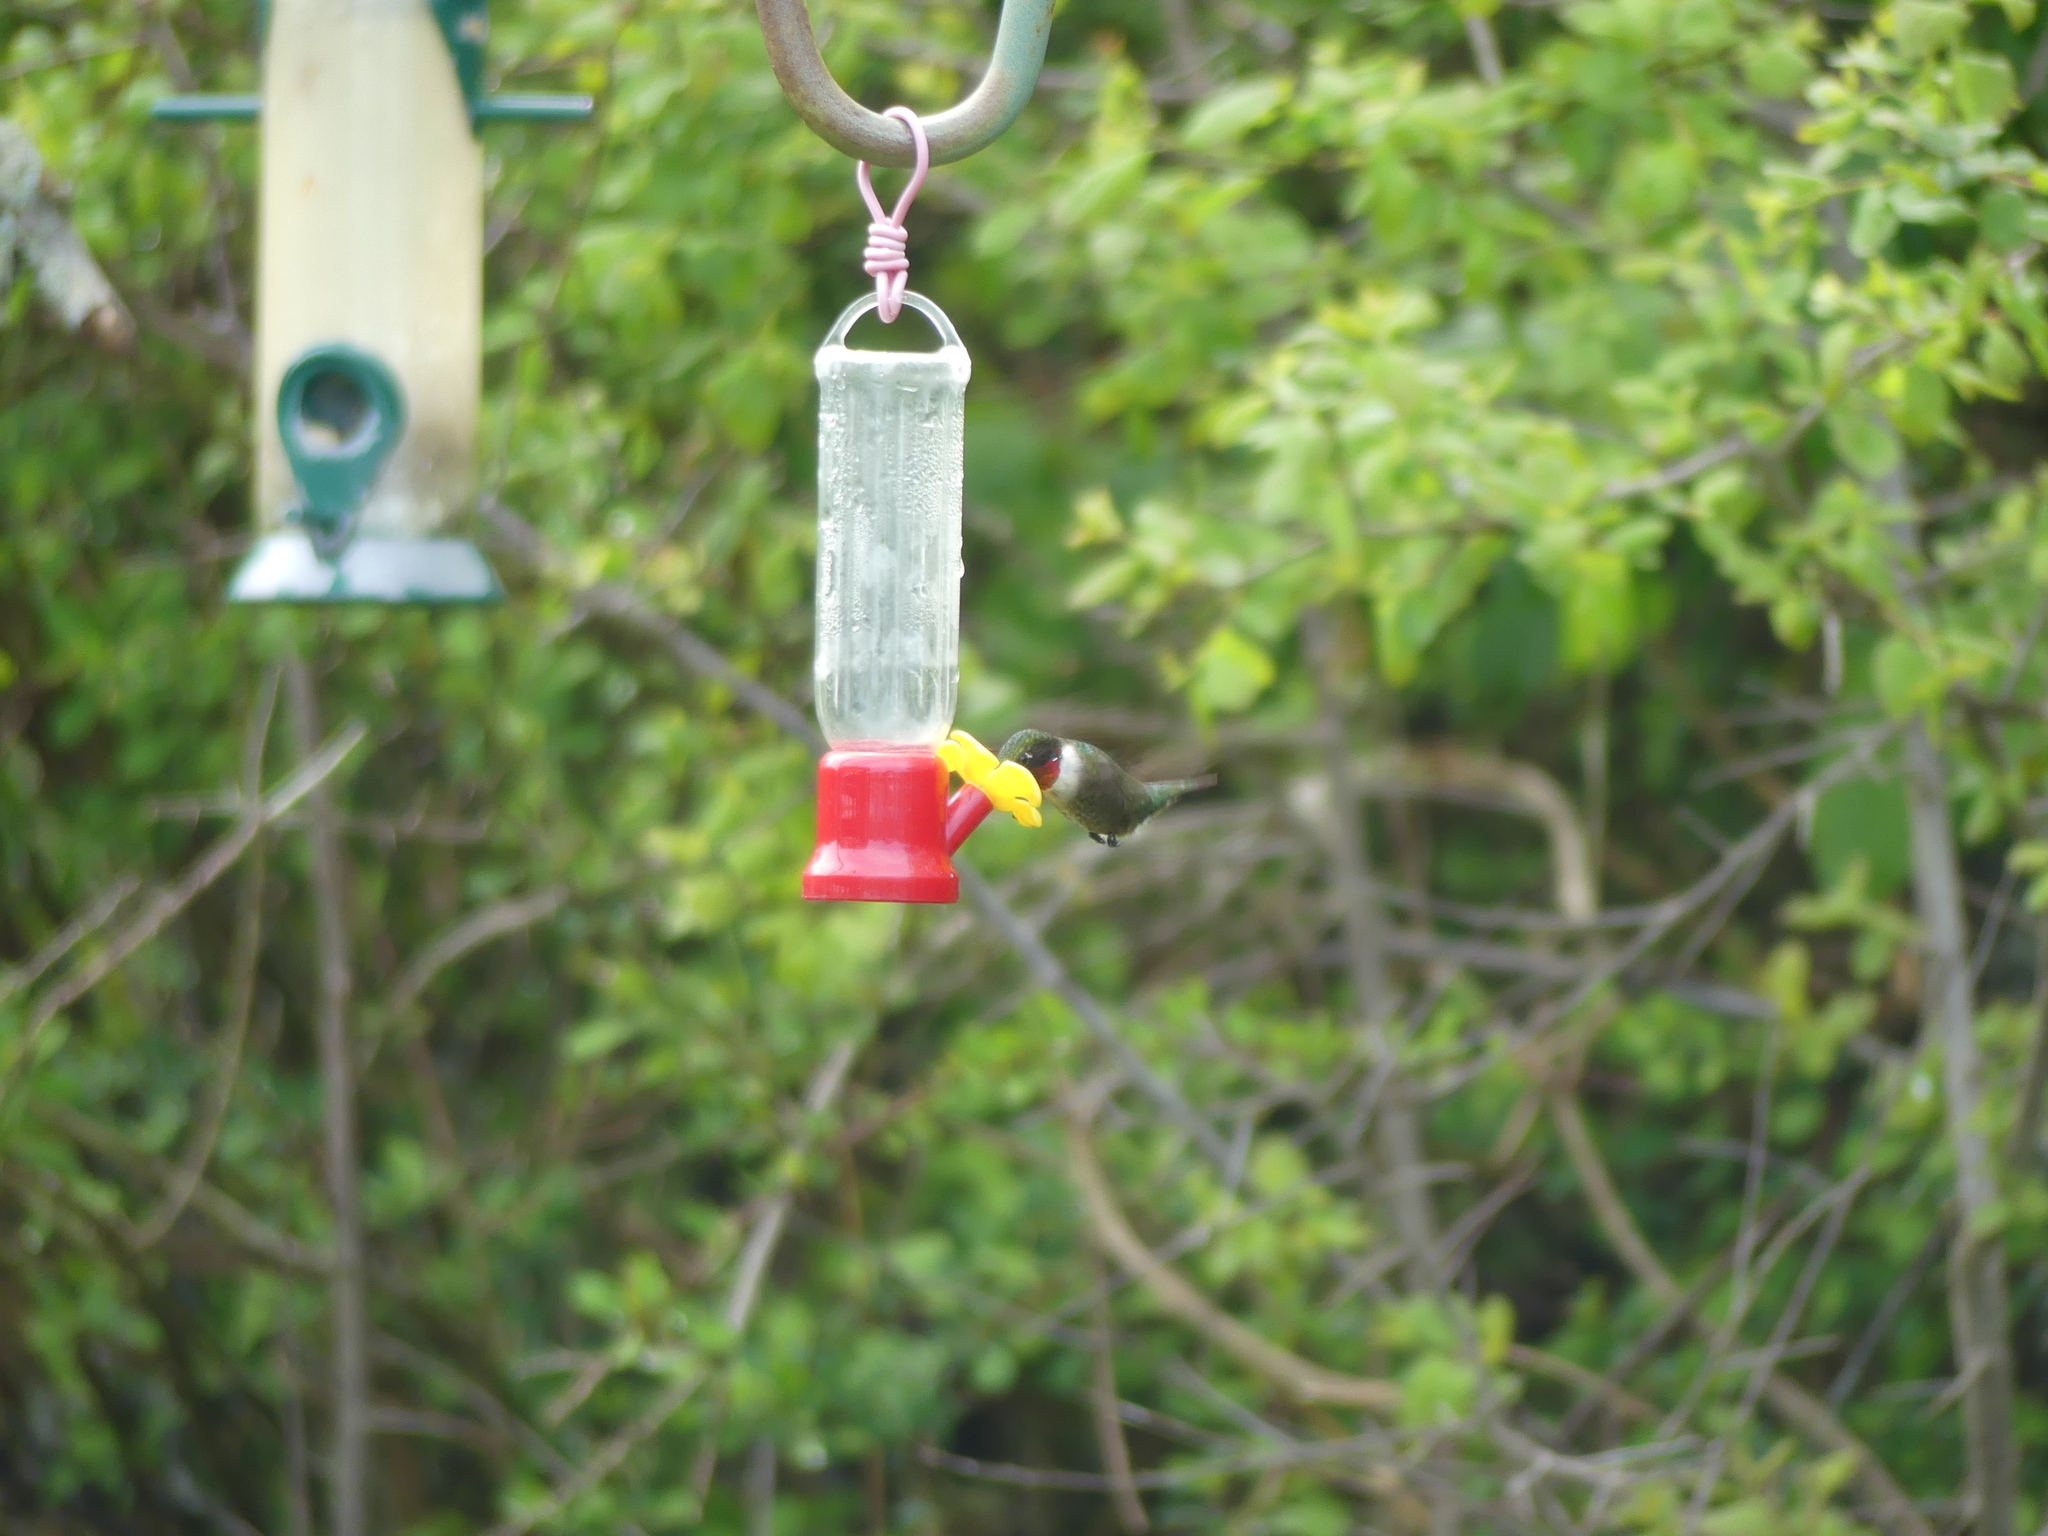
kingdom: Animalia
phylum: Chordata
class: Aves
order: Apodiformes
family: Trochilidae
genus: Archilochus
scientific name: Archilochus colubris
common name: Ruby-throated hummingbird
